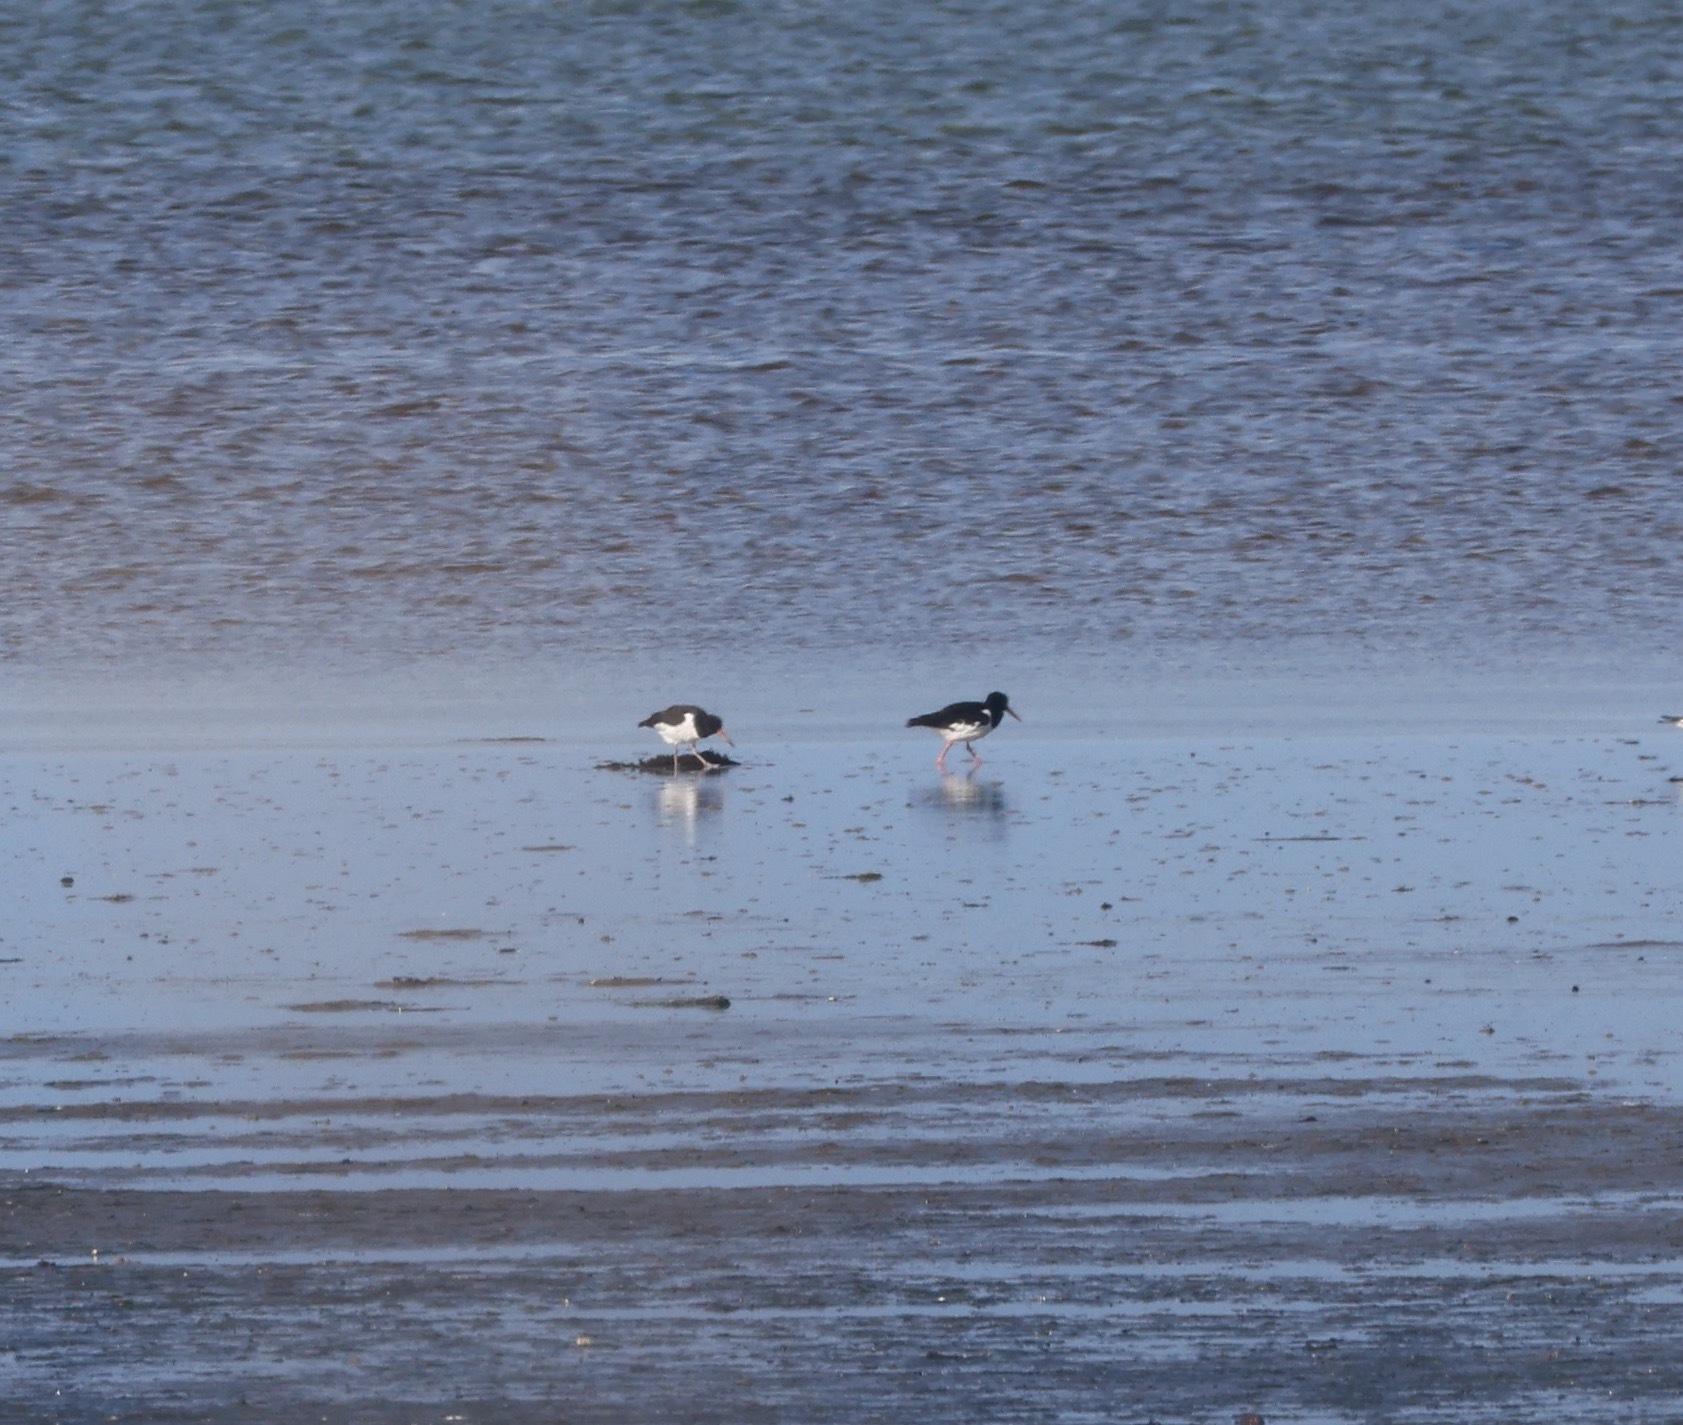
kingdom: Animalia
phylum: Chordata
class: Aves
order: Charadriiformes
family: Haematopodidae
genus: Haematopus
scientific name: Haematopus ostralegus
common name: Eurasian oystercatcher
